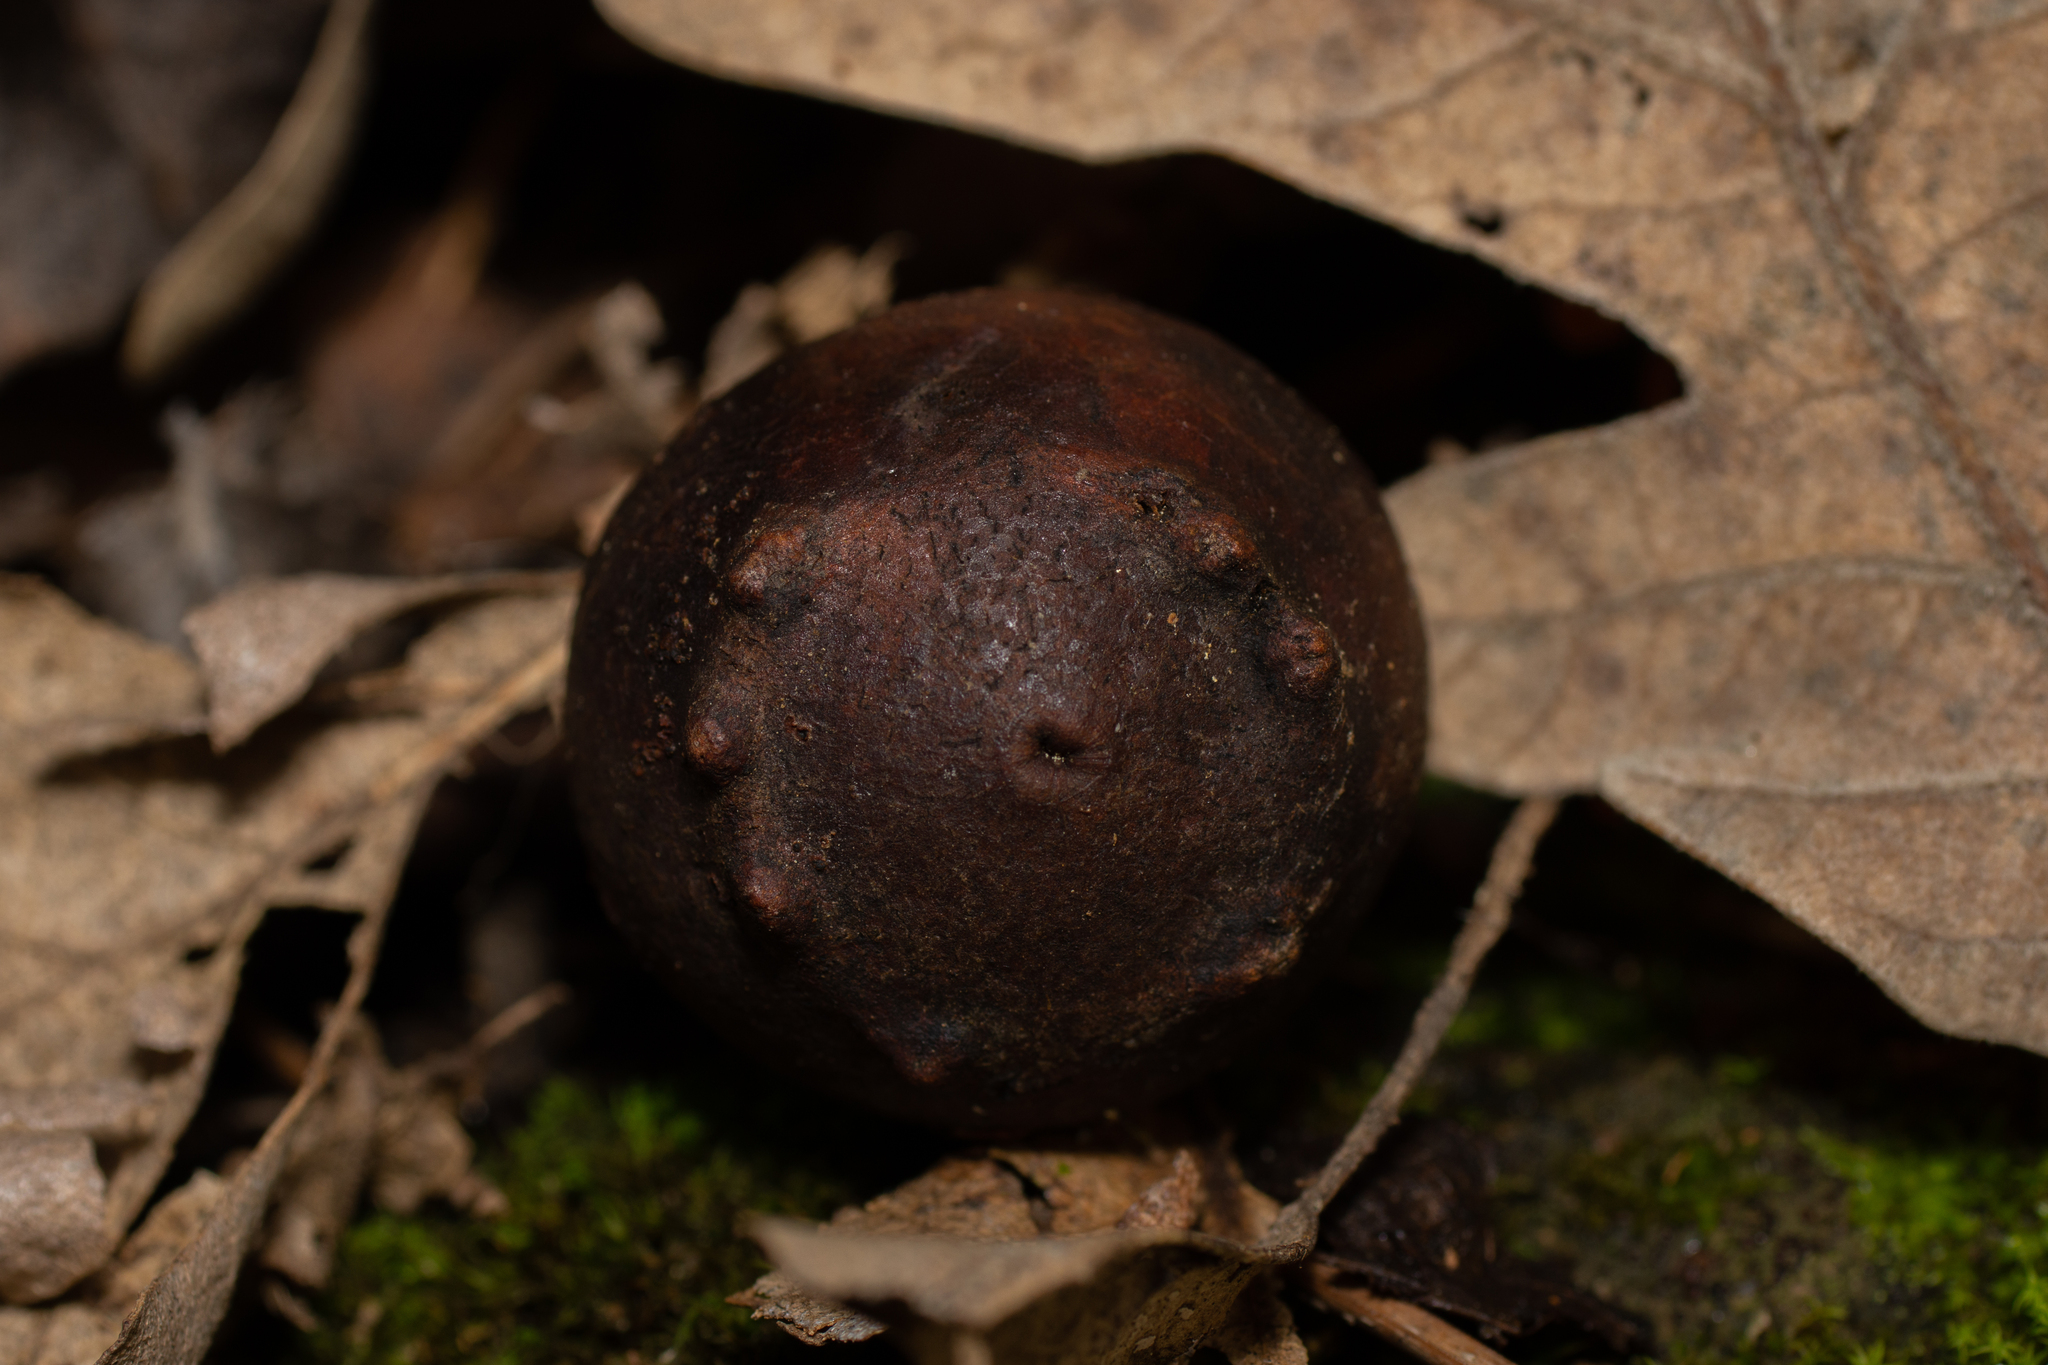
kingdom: Animalia
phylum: Arthropoda
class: Insecta
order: Hymenoptera
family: Cynipidae
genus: Andricus
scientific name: Andricus quercustozae
